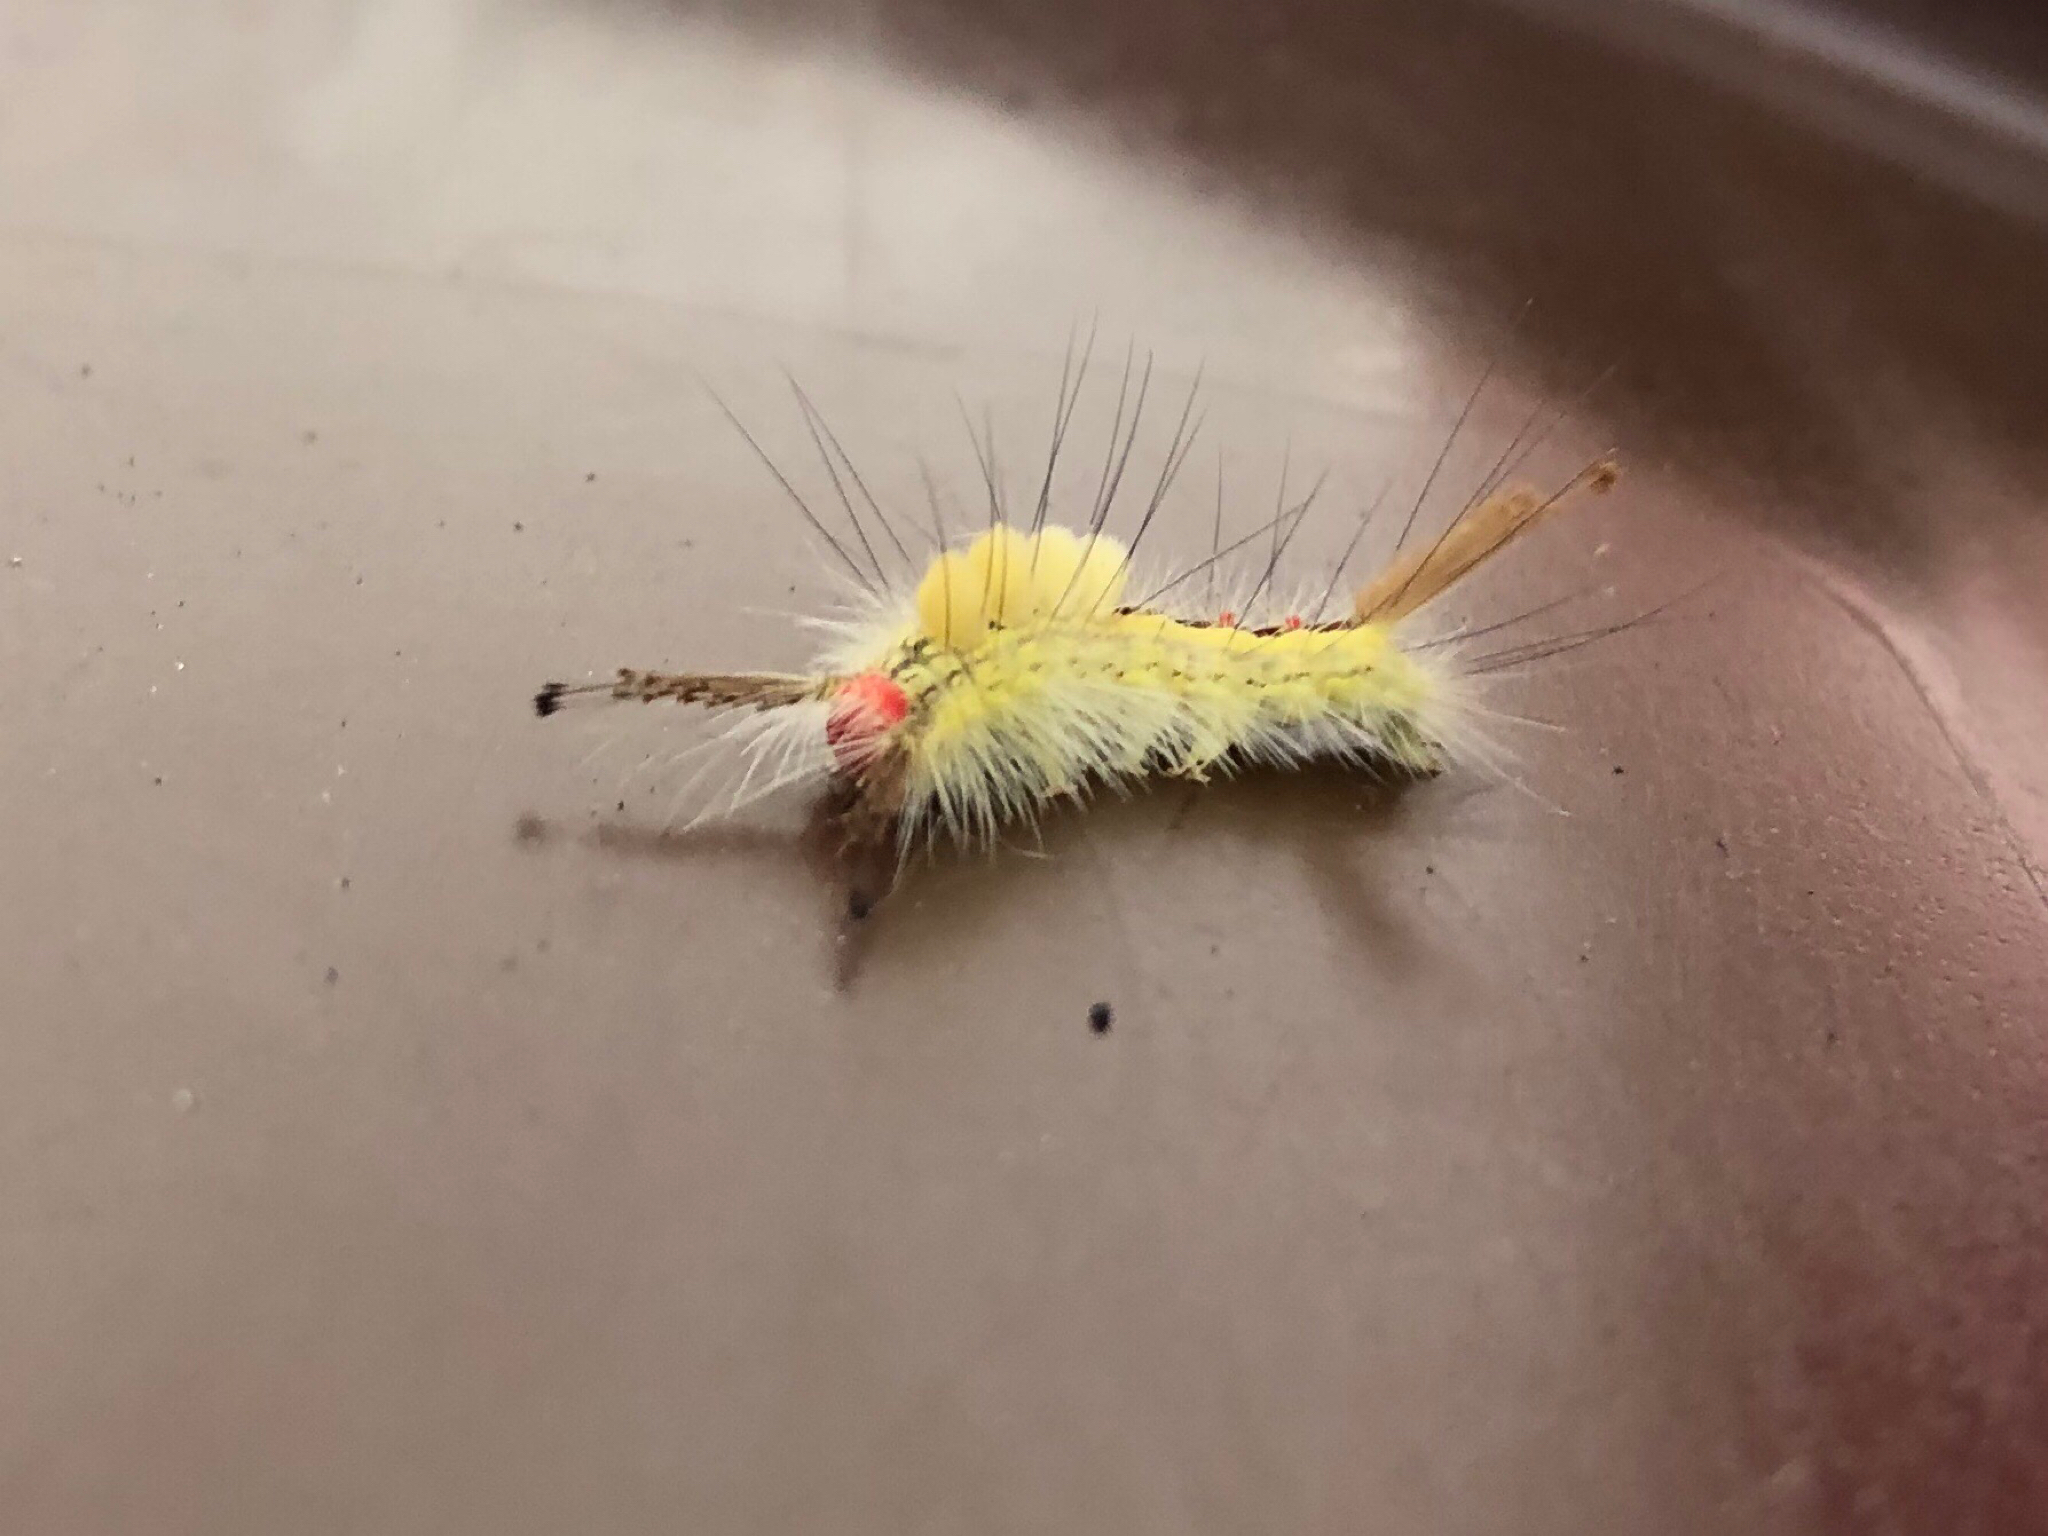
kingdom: Animalia
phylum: Arthropoda
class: Insecta
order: Lepidoptera
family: Erebidae
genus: Orgyia
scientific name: Orgyia leucostigma
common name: White-marked tussock moth
